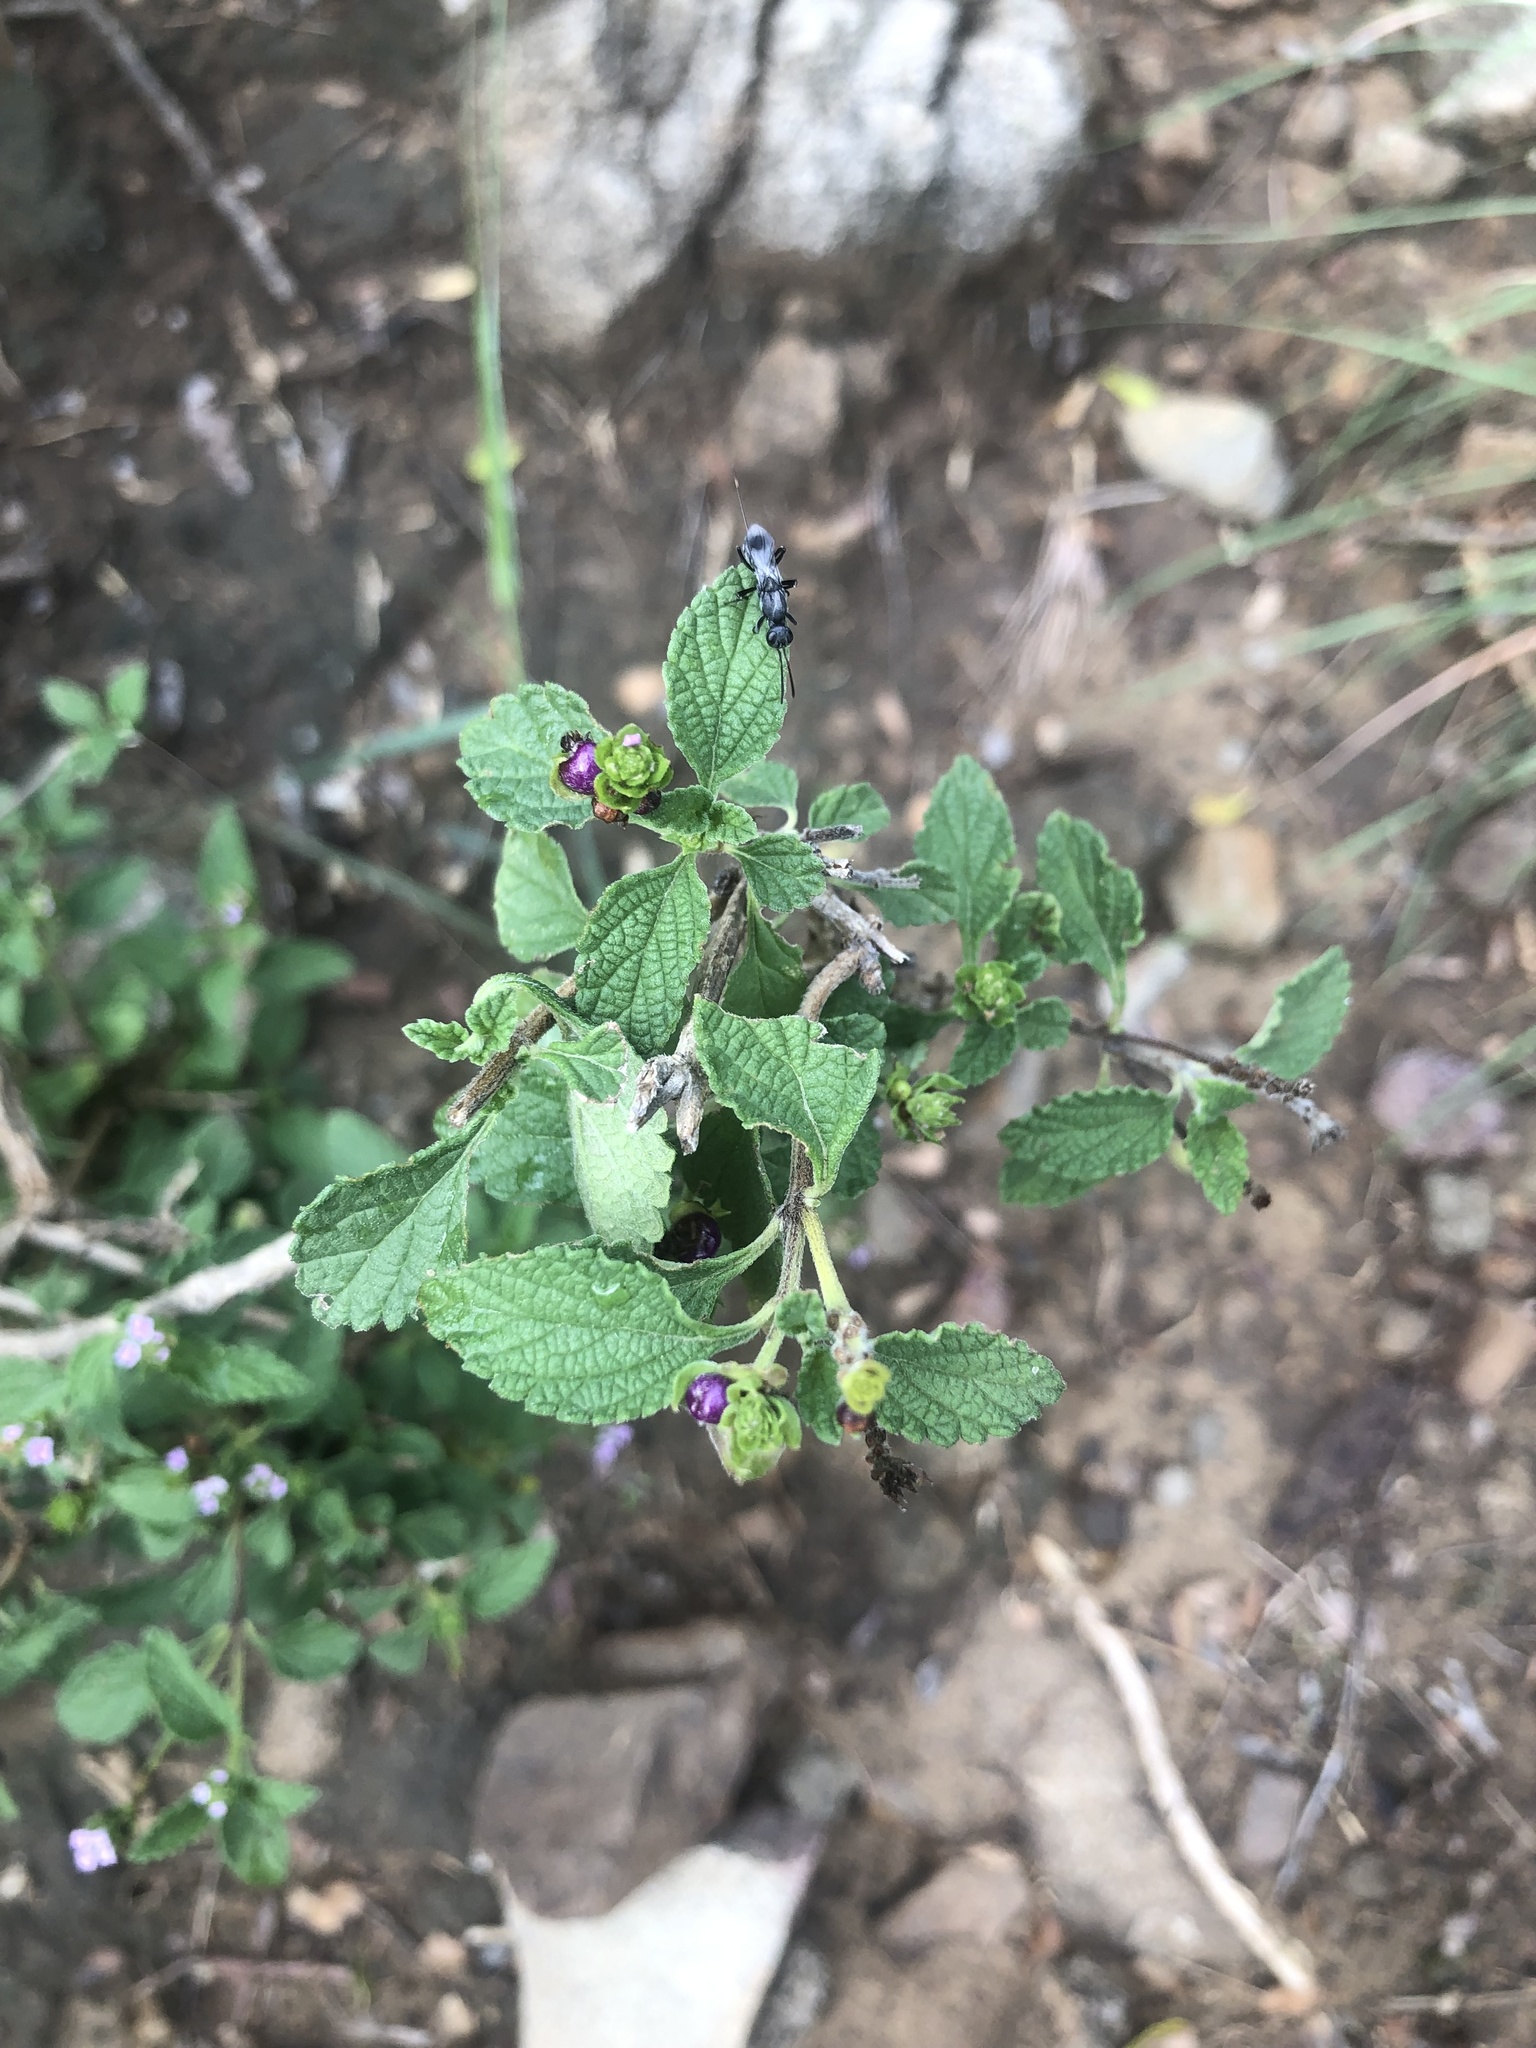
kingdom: Plantae
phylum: Tracheophyta
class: Magnoliopsida
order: Lamiales
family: Verbenaceae
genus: Lantana
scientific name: Lantana rugosa
